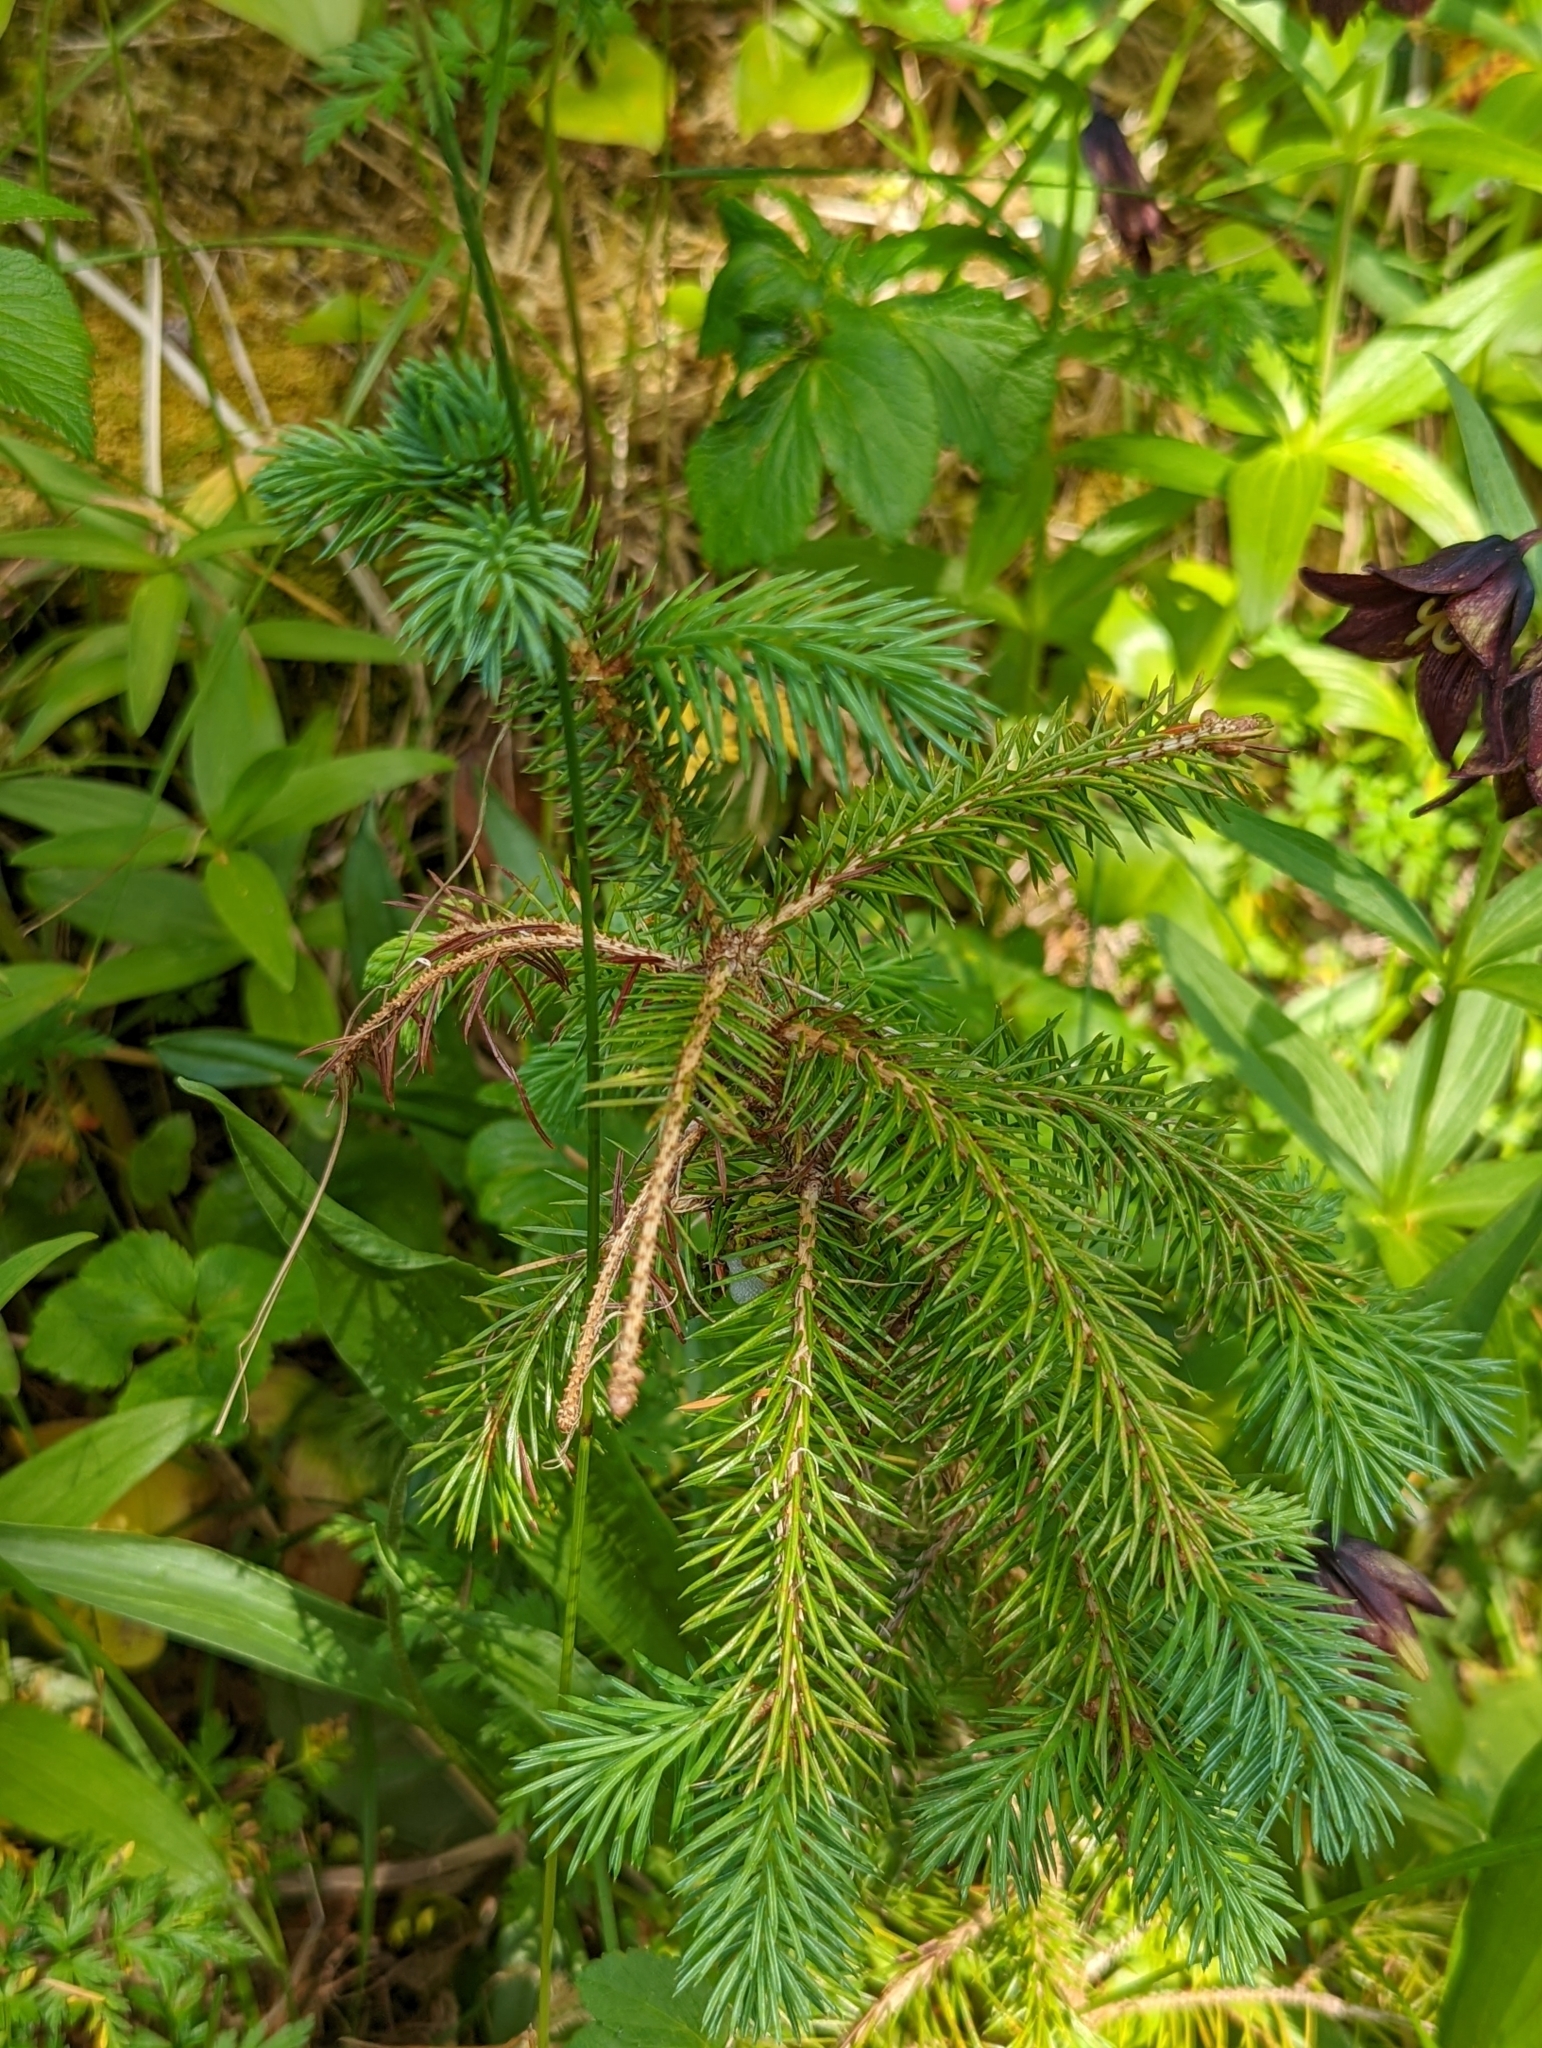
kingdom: Plantae
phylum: Tracheophyta
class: Pinopsida
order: Pinales
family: Pinaceae
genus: Picea
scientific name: Picea sitchensis
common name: Sitka spruce
